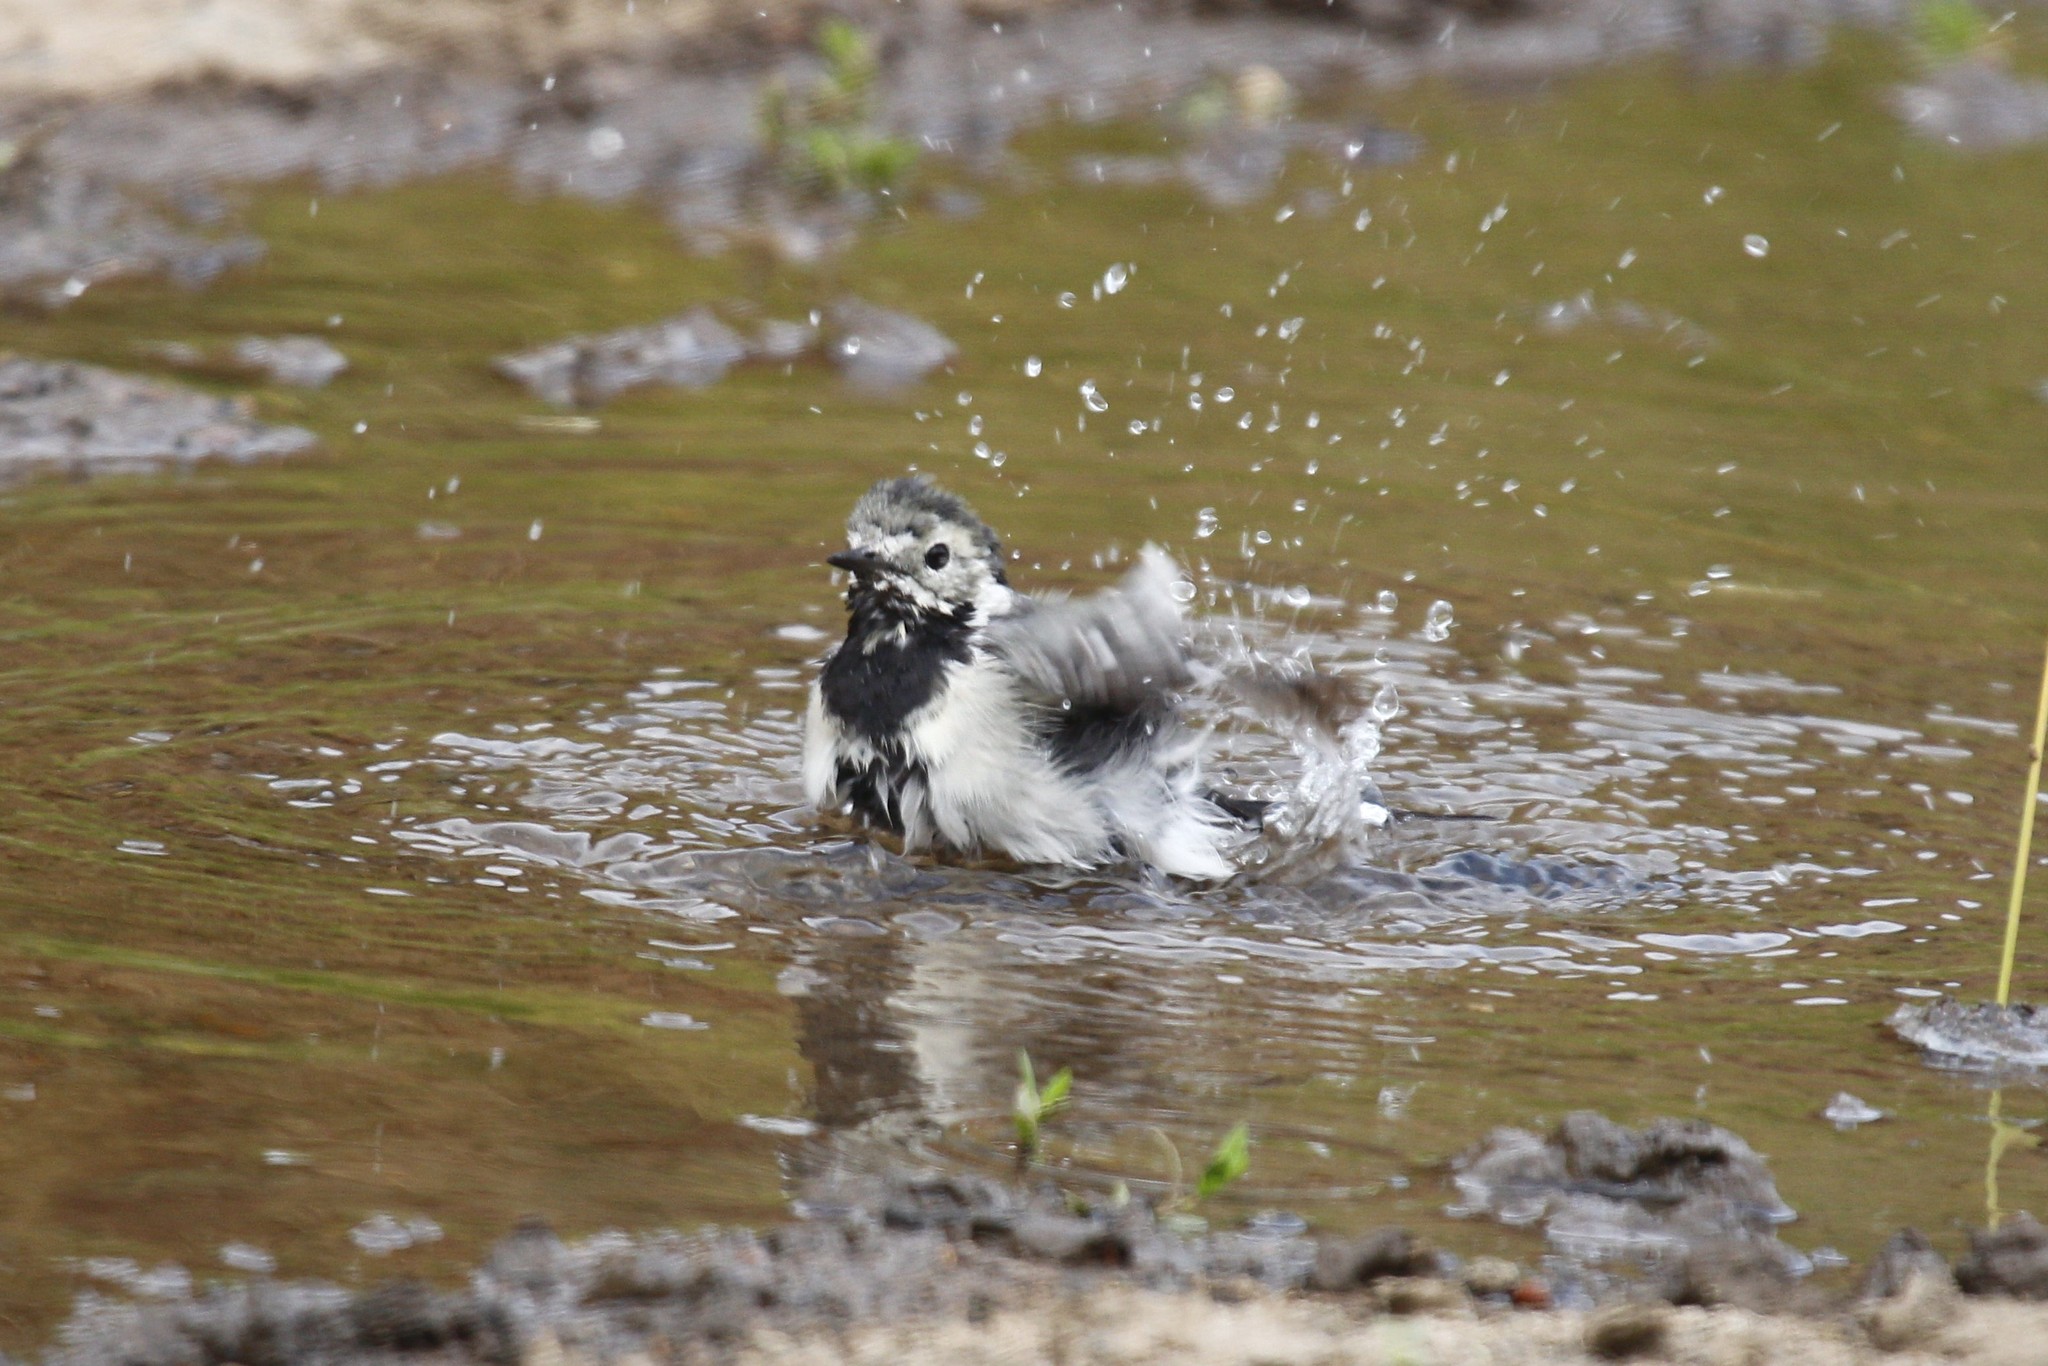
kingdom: Animalia
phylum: Chordata
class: Aves
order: Passeriformes
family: Motacillidae
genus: Motacilla
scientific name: Motacilla alba
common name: White wagtail
